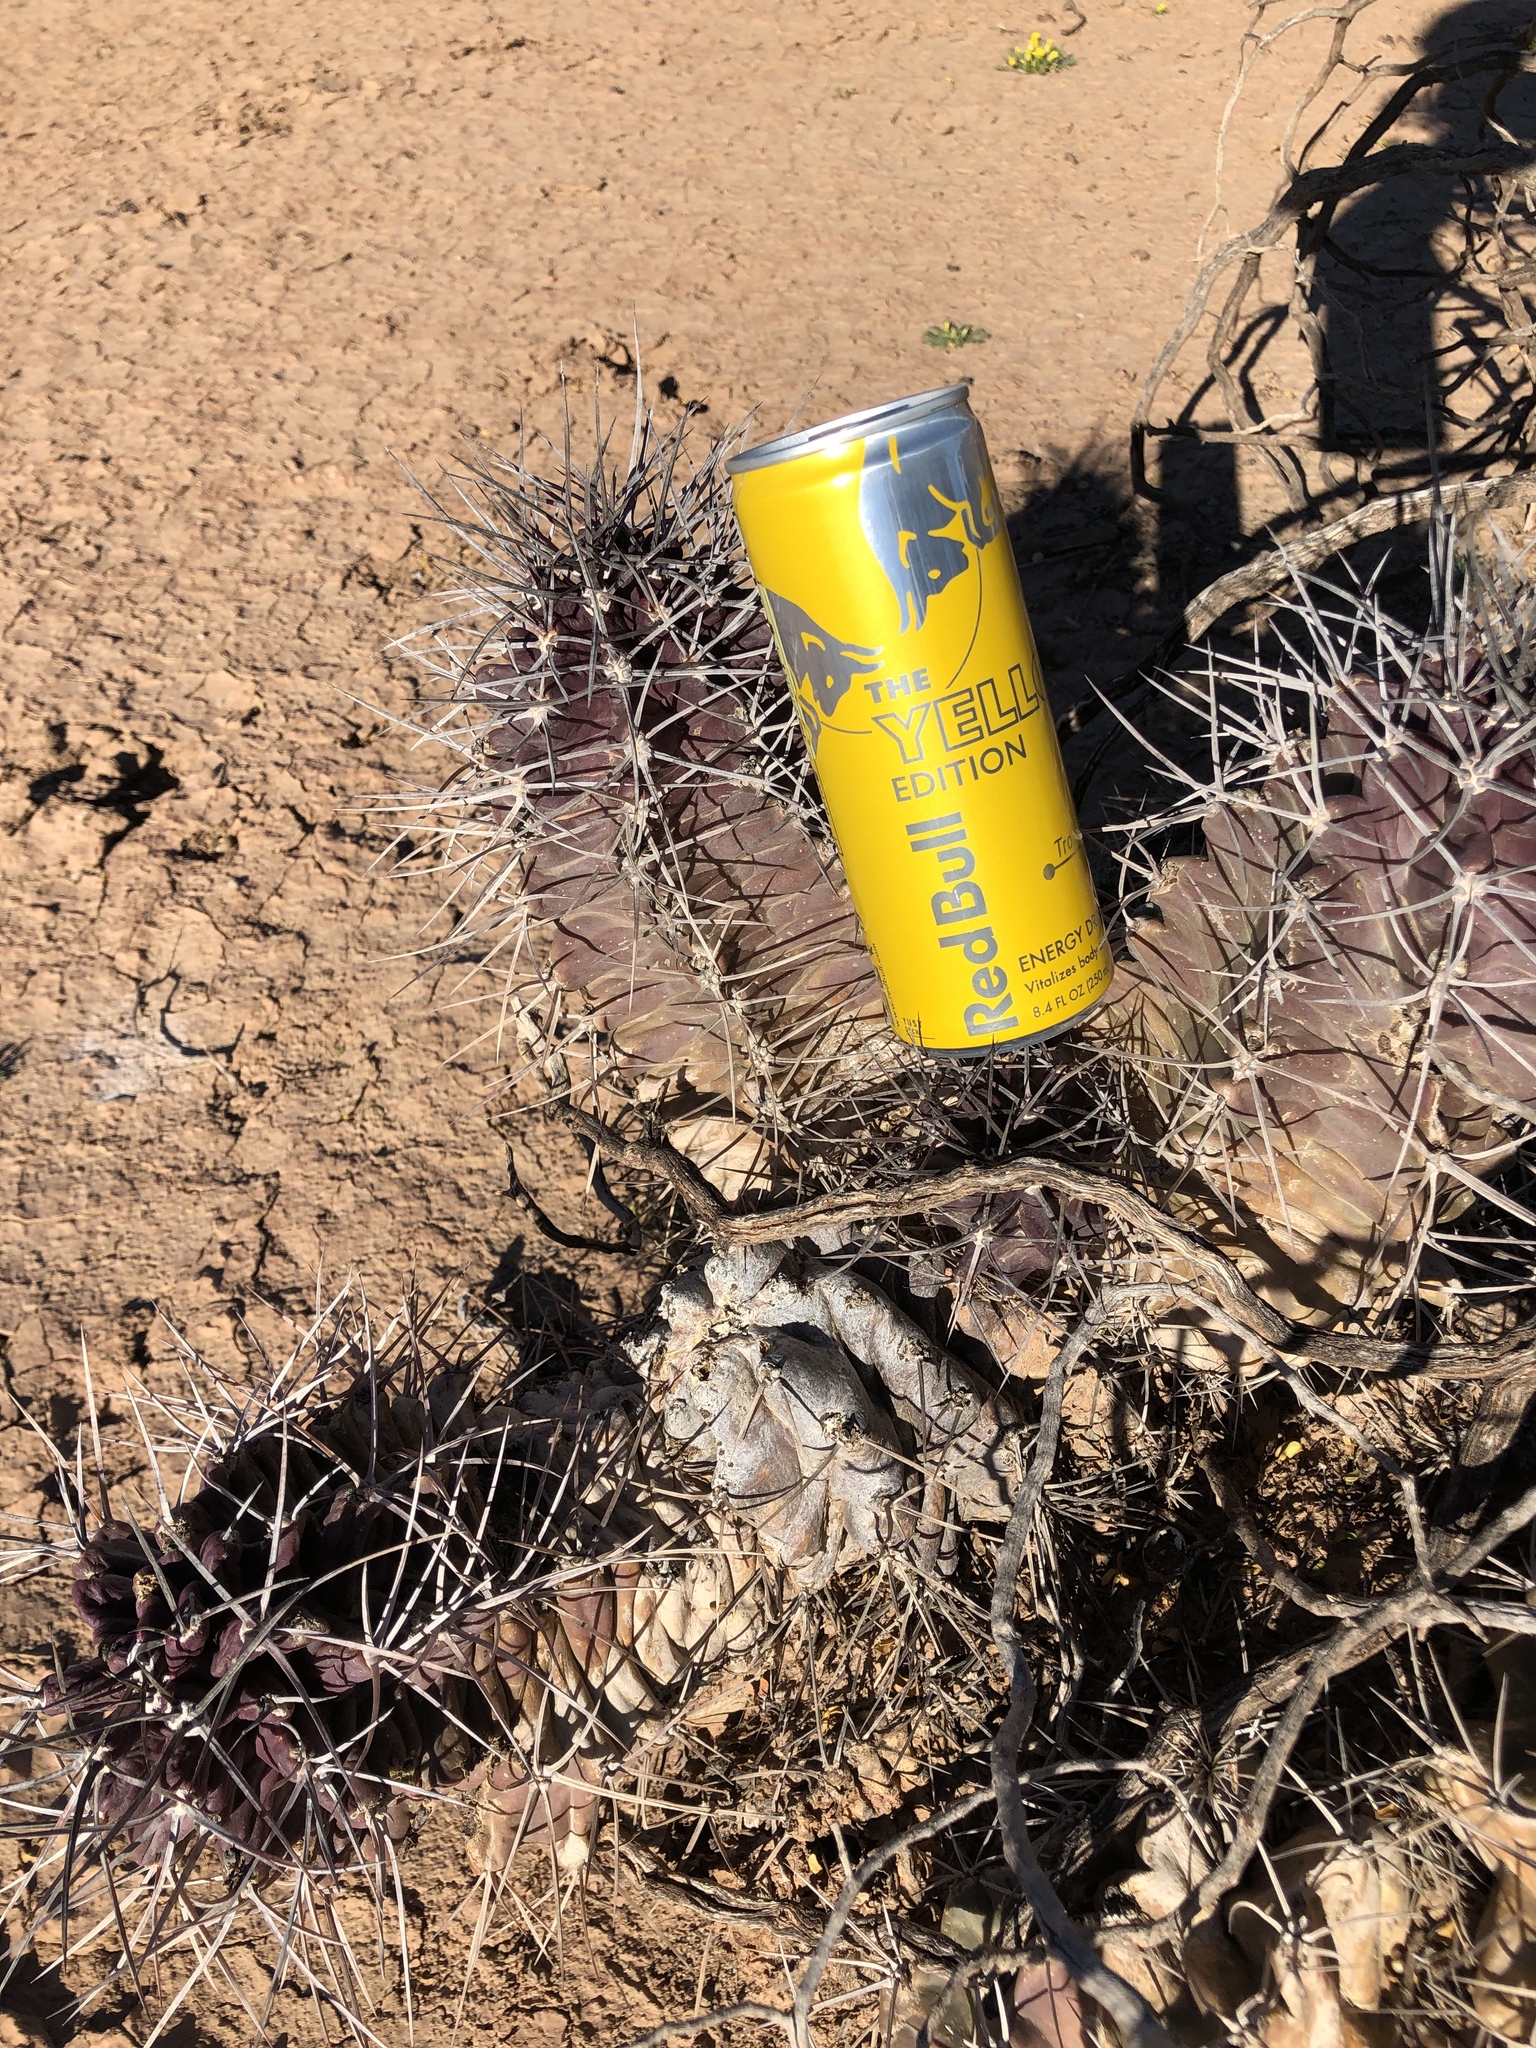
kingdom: Plantae
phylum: Tracheophyta
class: Magnoliopsida
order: Caryophyllales
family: Cactaceae
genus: Echinocereus
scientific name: Echinocereus triglochidiatus
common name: Claretcup hedgehog
